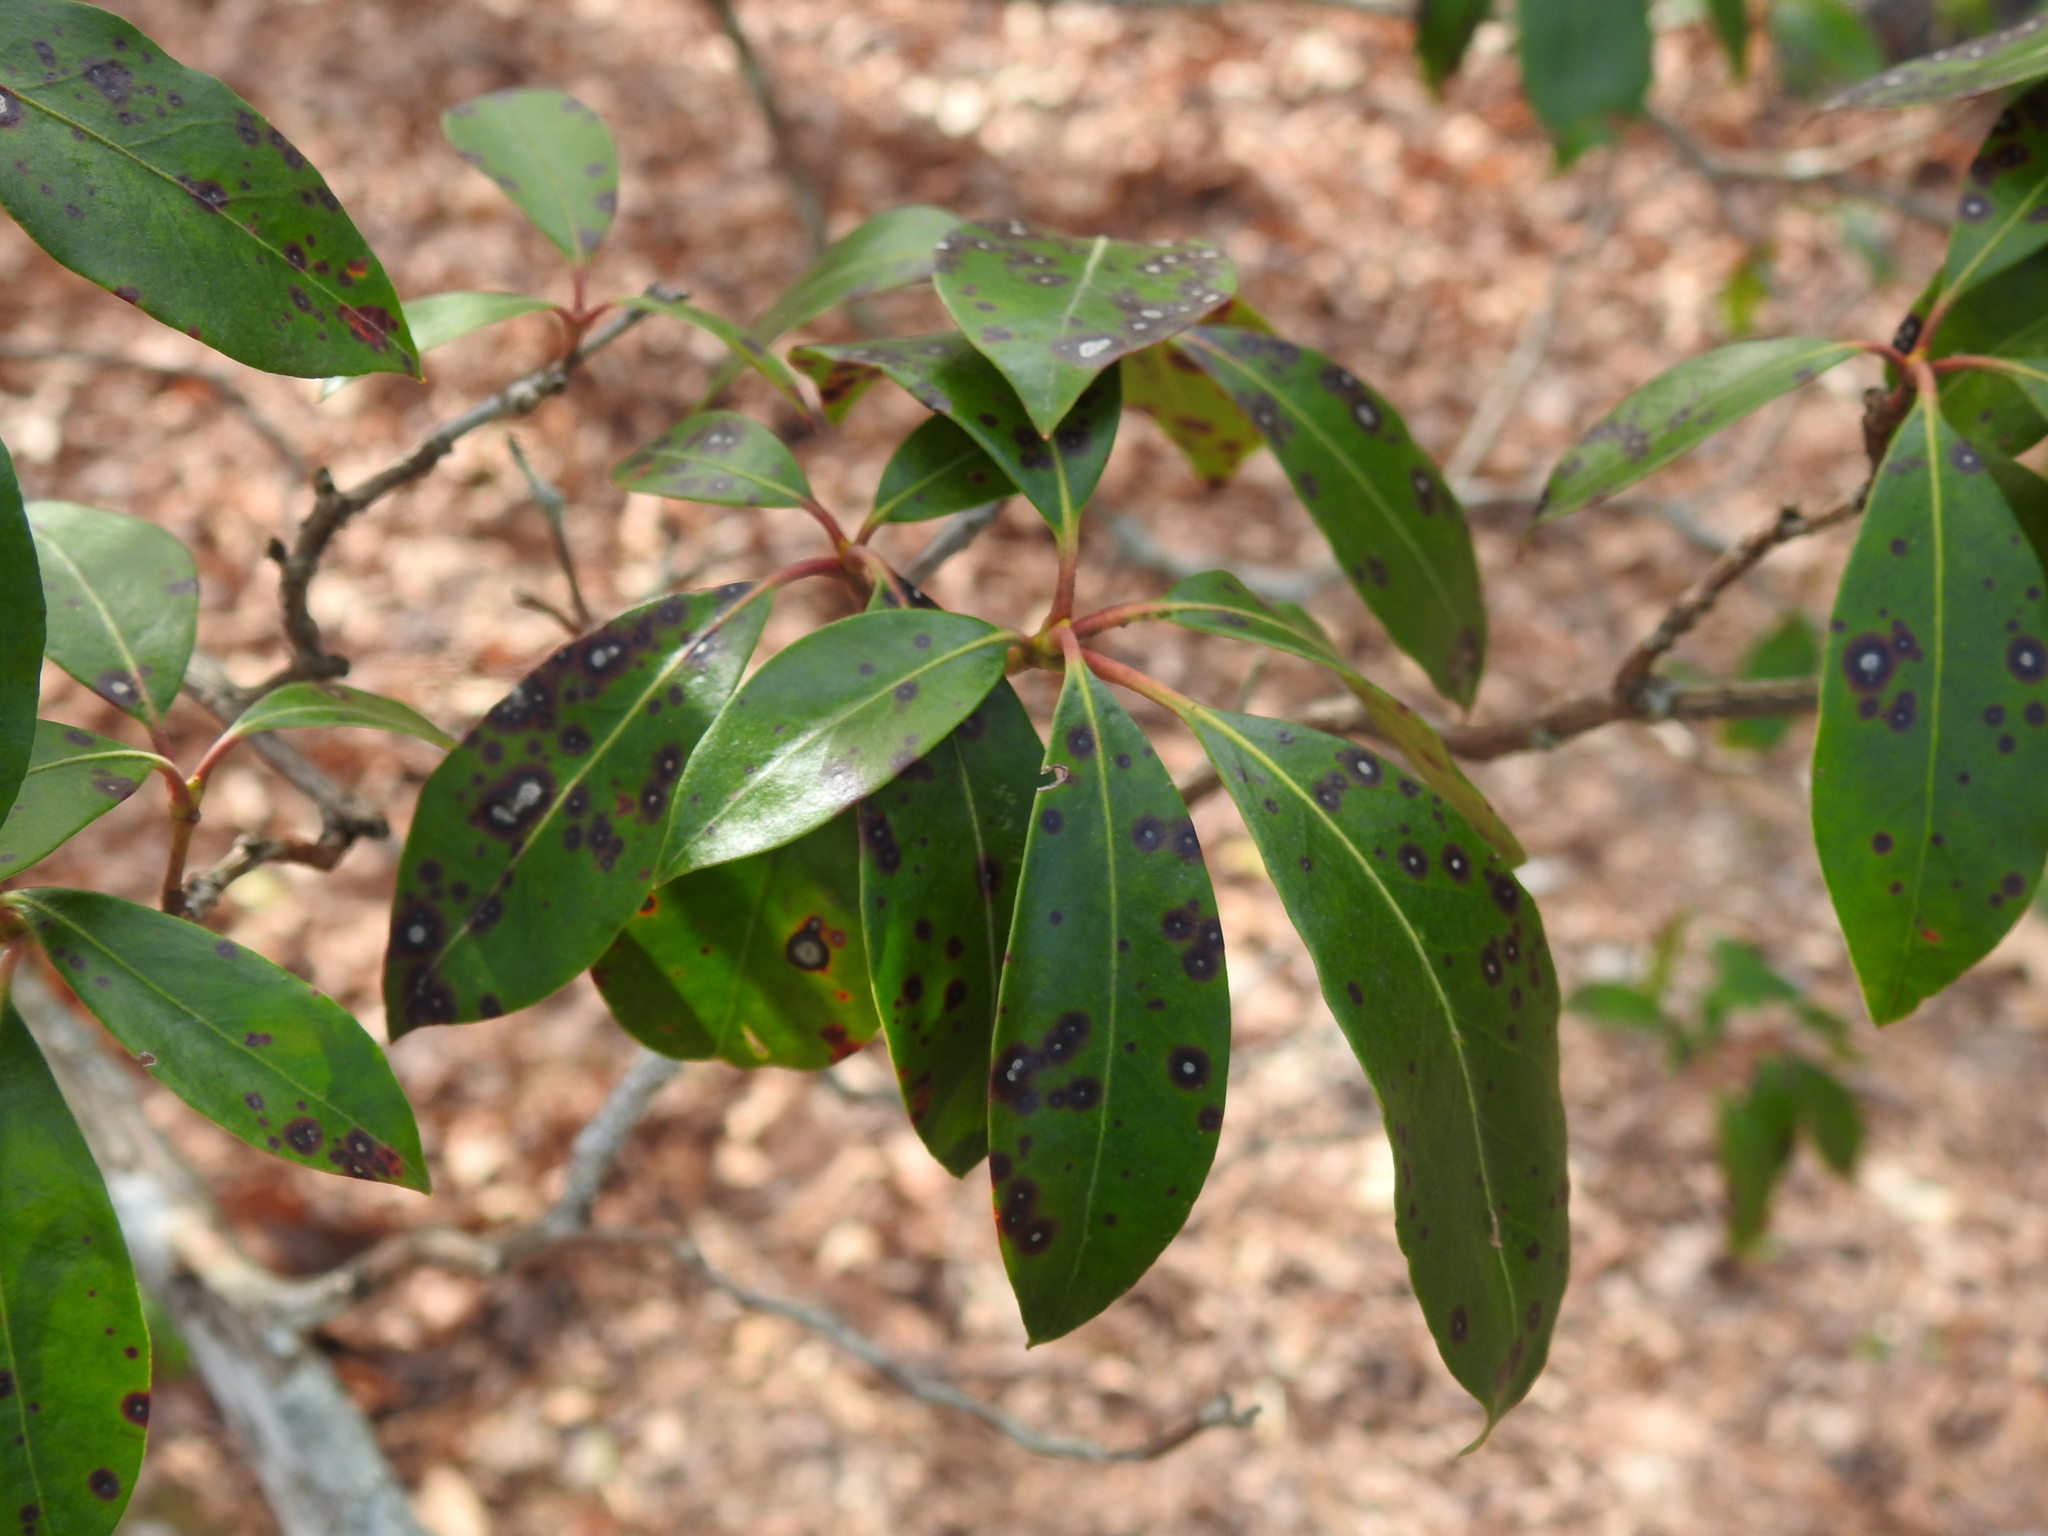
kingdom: Fungi
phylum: Ascomycota
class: Dothideomycetes
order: Mycosphaerellales
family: Mycosphaerellaceae
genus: Mycosphaerella
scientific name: Mycosphaerella colorata
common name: Mountain laurel leaf spot
